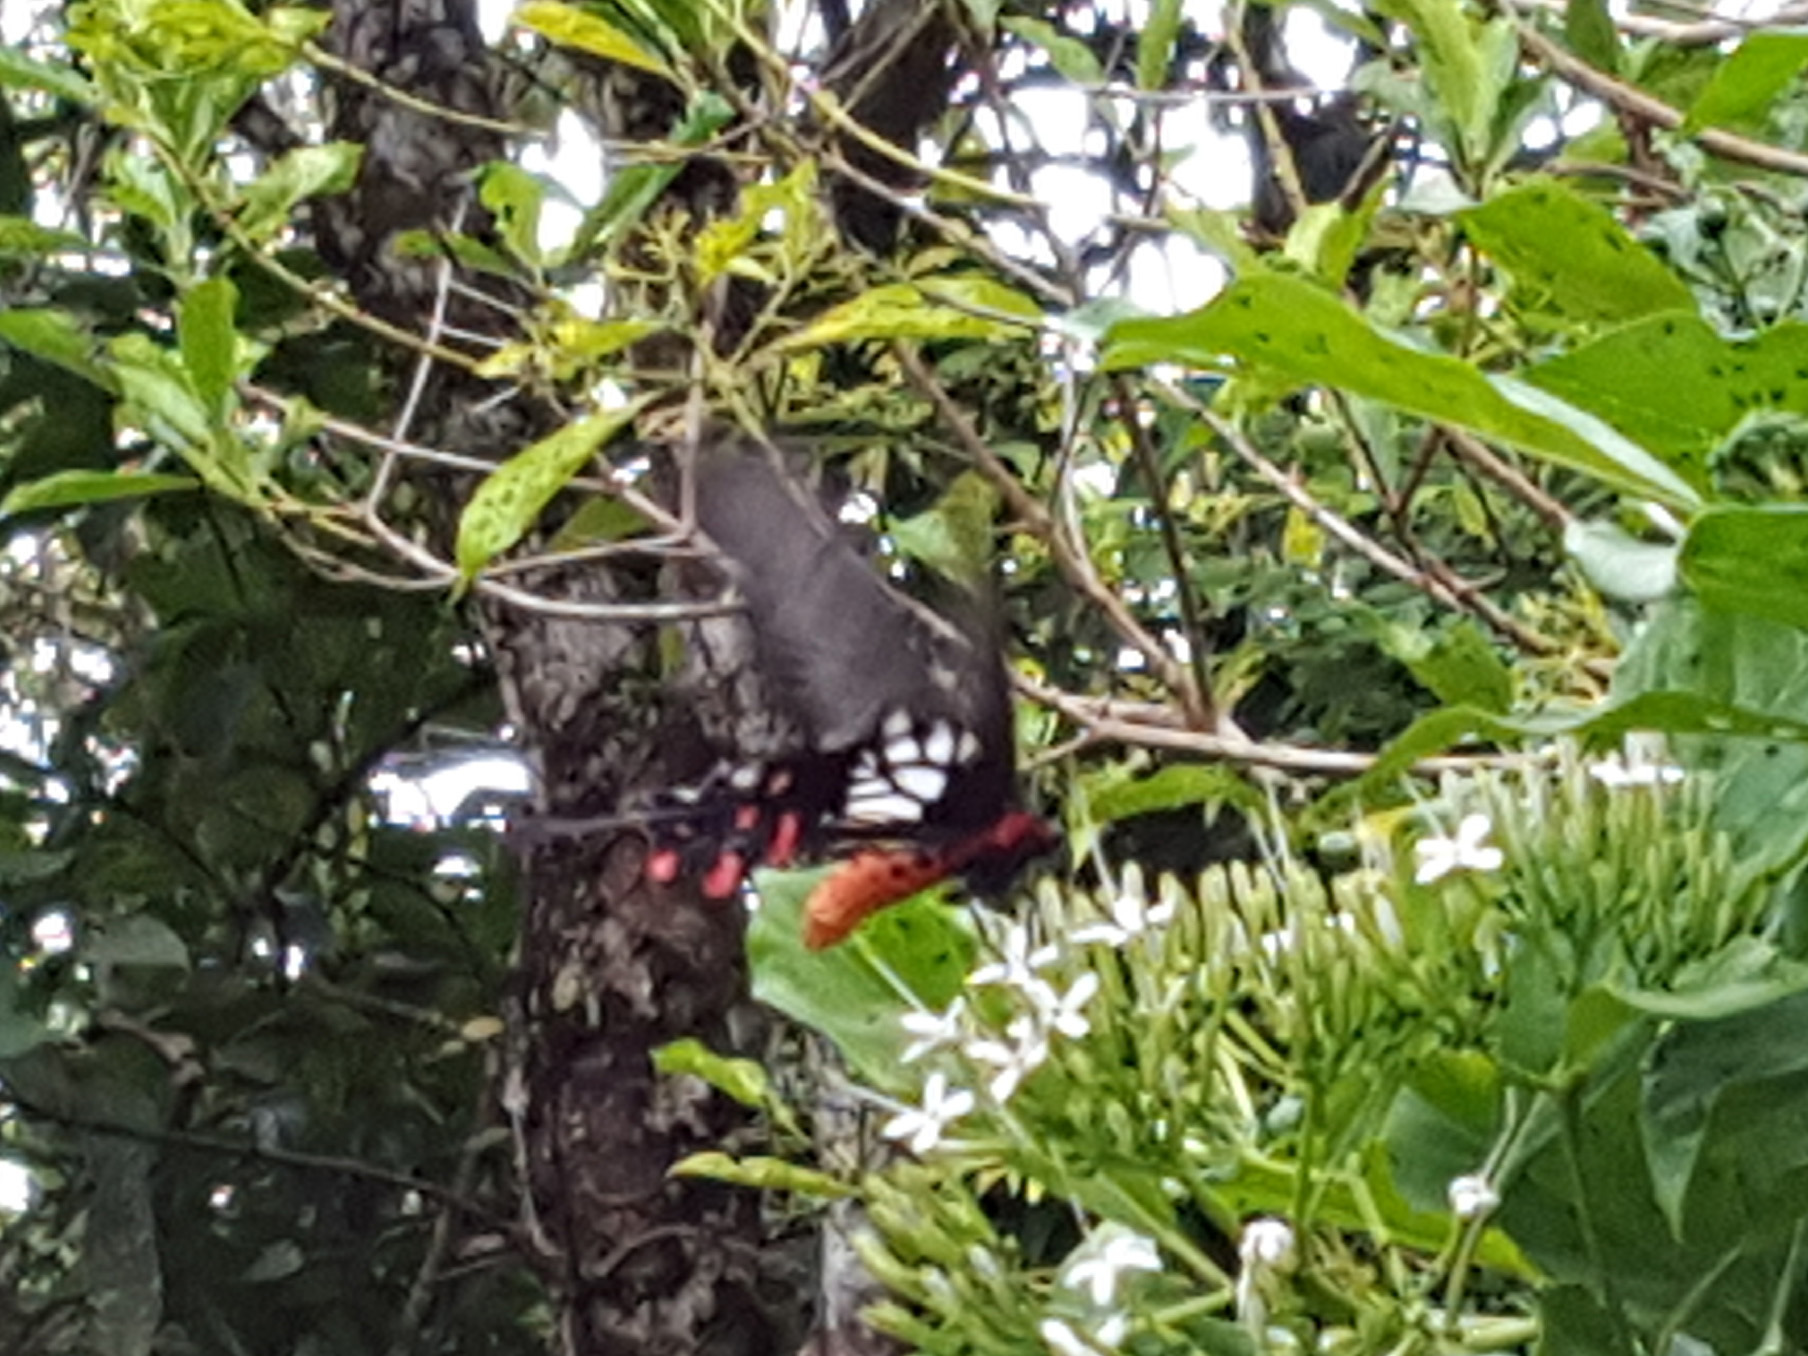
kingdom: Animalia
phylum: Arthropoda
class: Insecta
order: Lepidoptera
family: Papilionidae
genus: Losaria
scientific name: Losaria
